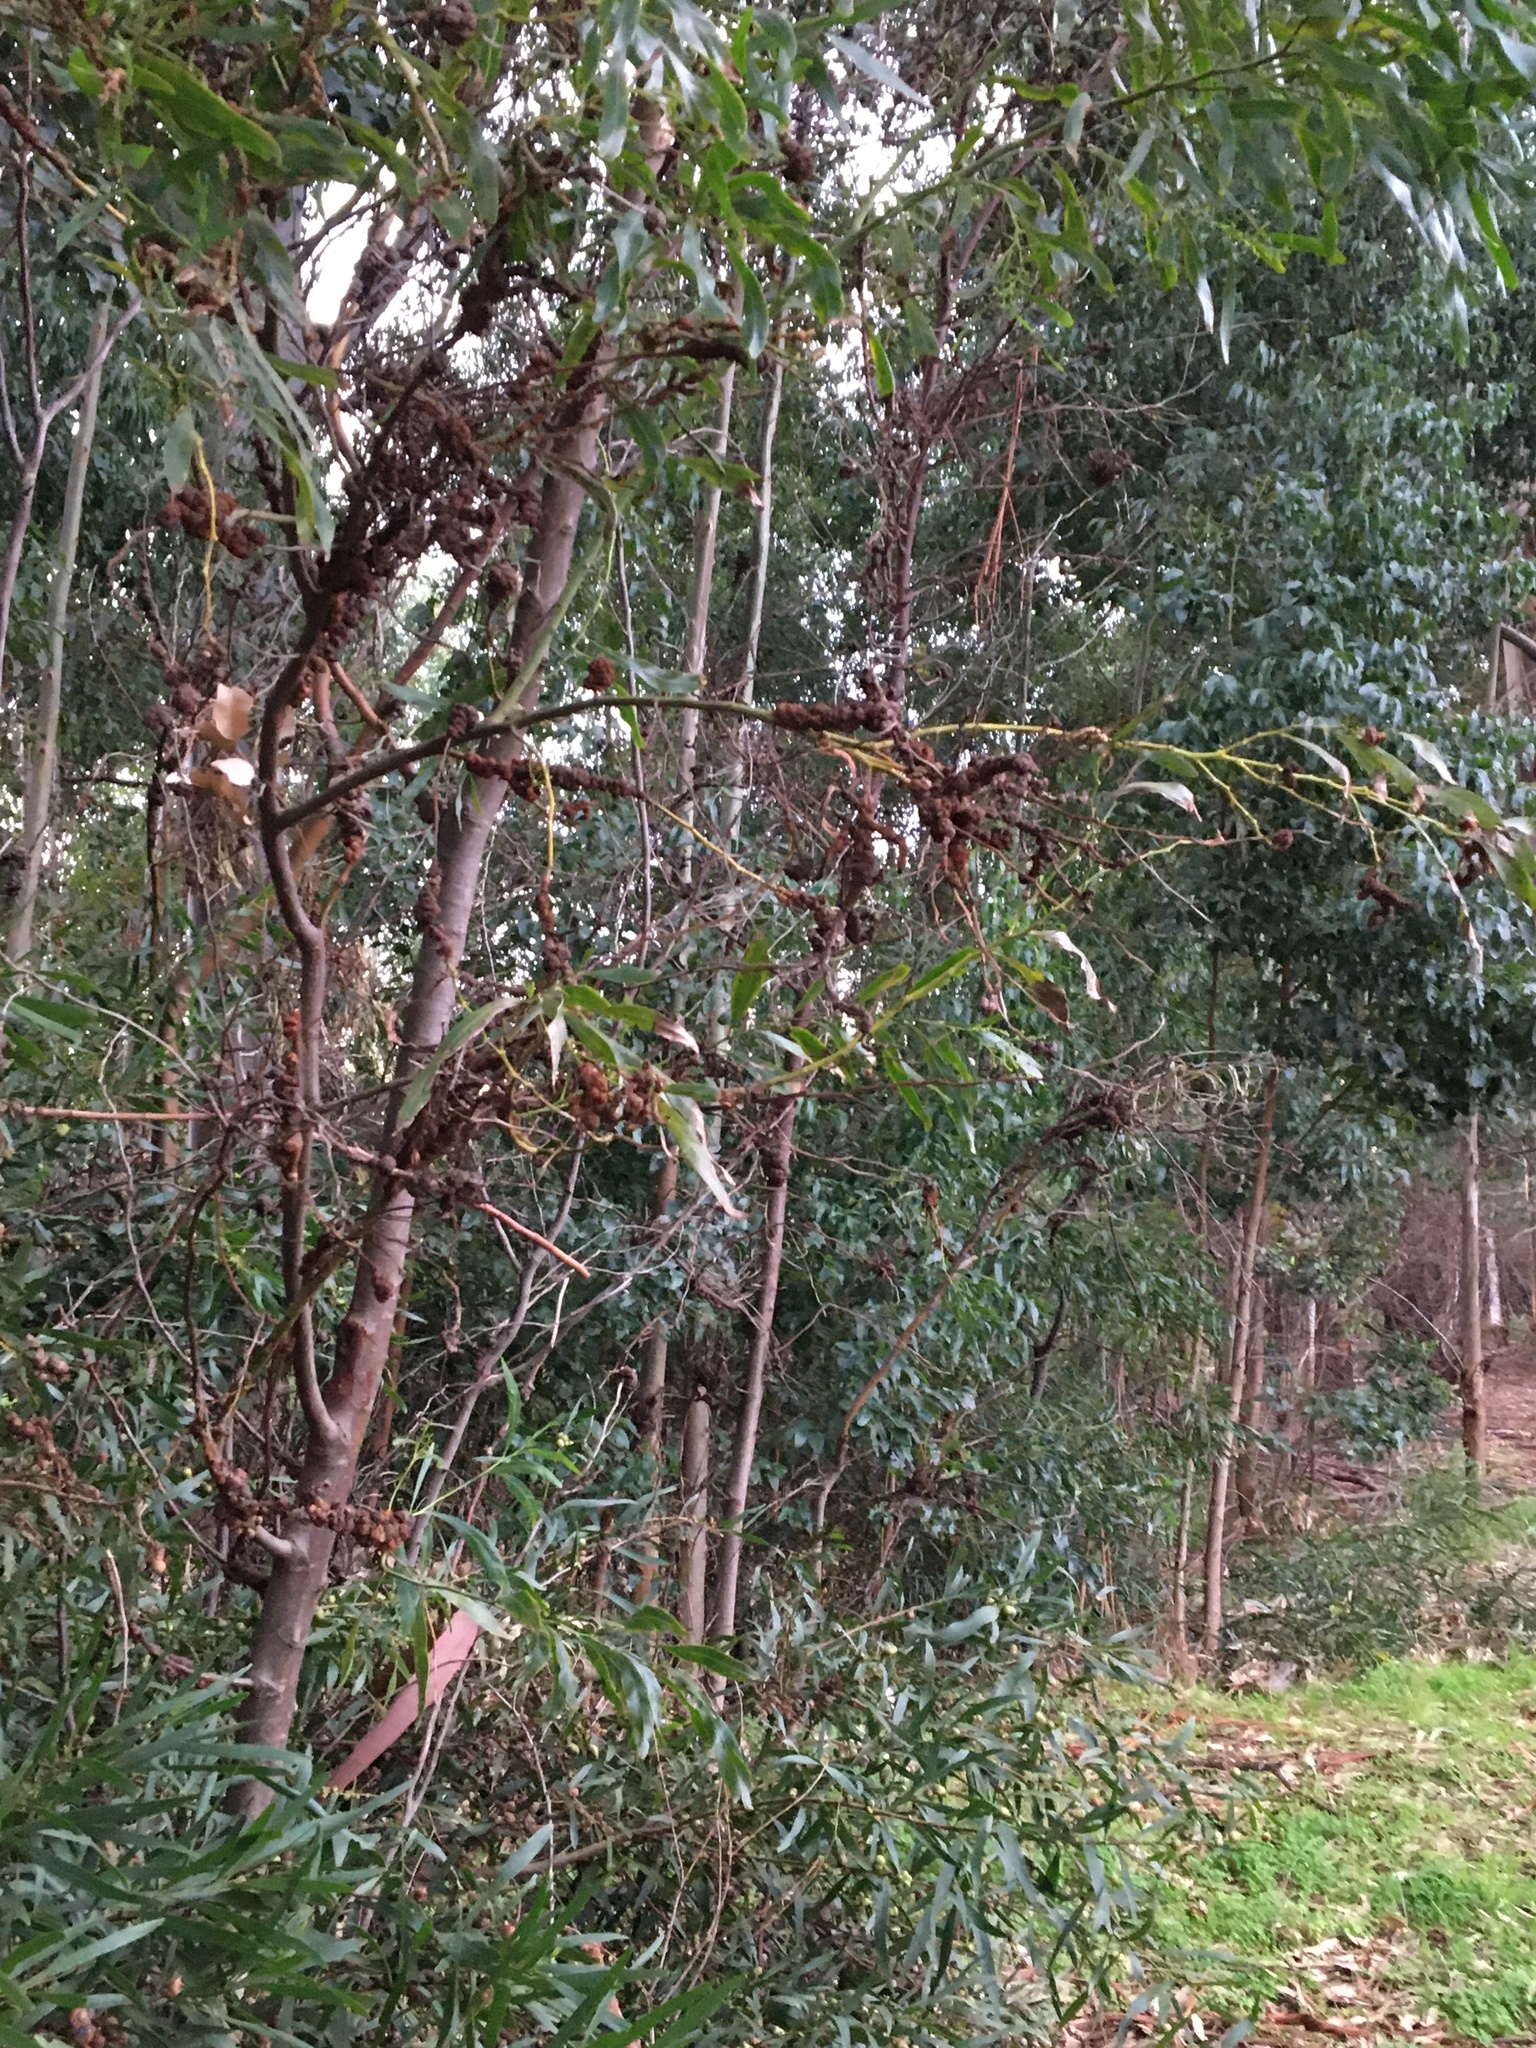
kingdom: Plantae
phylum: Tracheophyta
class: Magnoliopsida
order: Fabales
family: Fabaceae
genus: Acacia
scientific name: Acacia saligna
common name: Orange wattle
